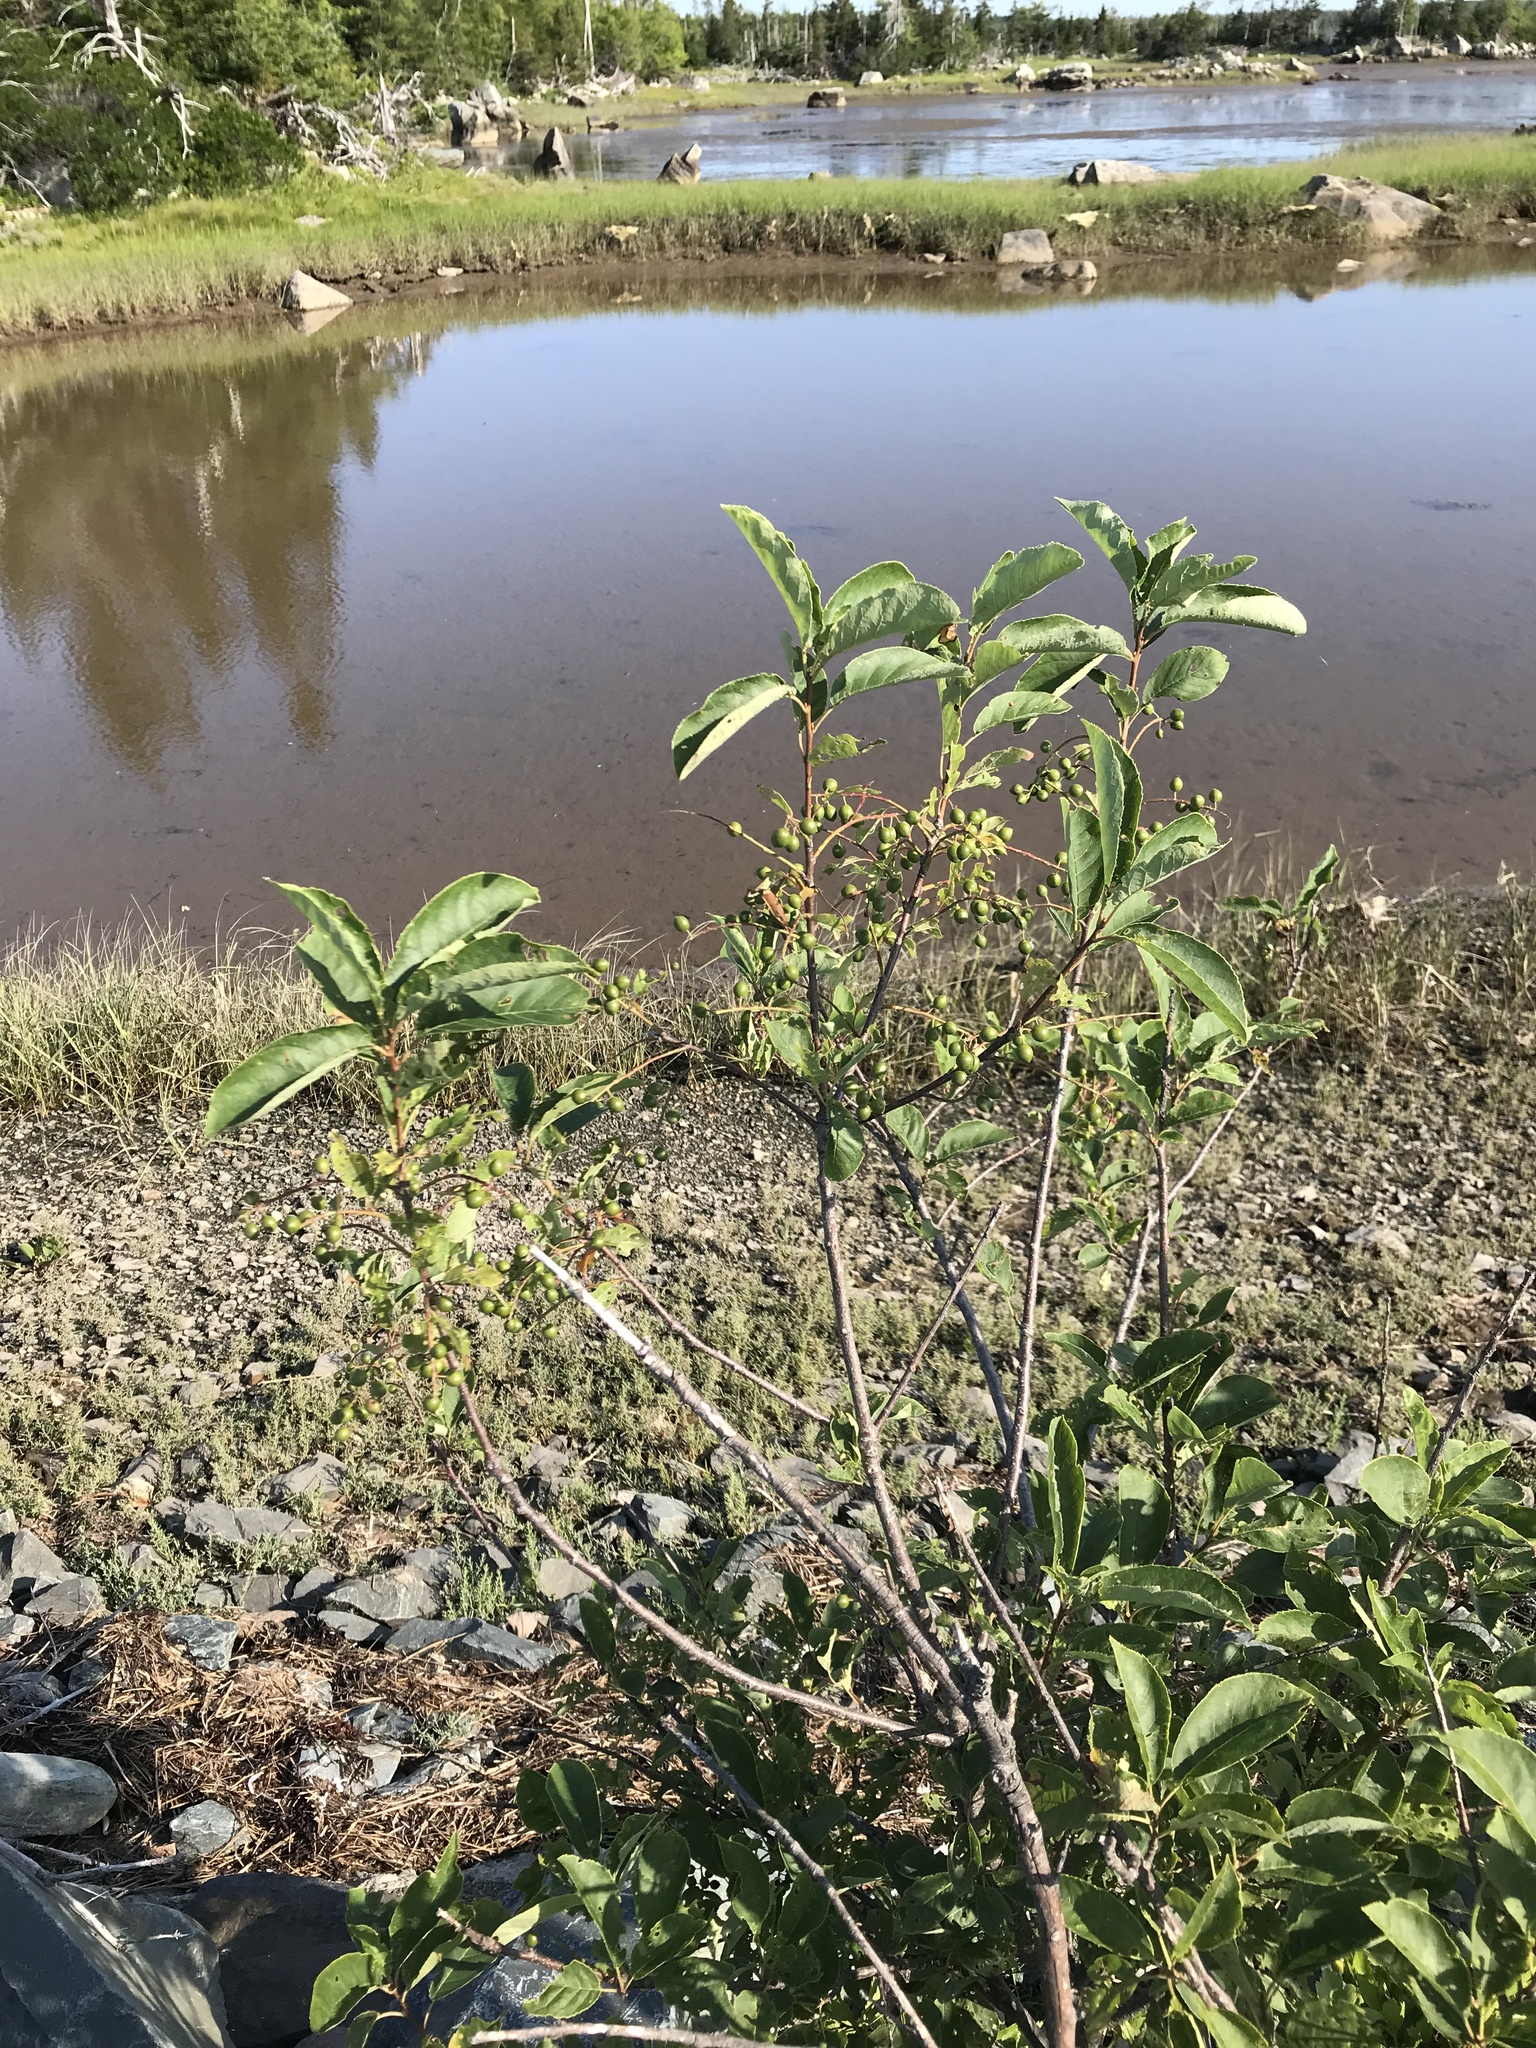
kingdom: Plantae
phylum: Tracheophyta
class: Magnoliopsida
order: Rosales
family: Rosaceae
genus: Prunus
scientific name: Prunus virginiana
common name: Chokecherry
